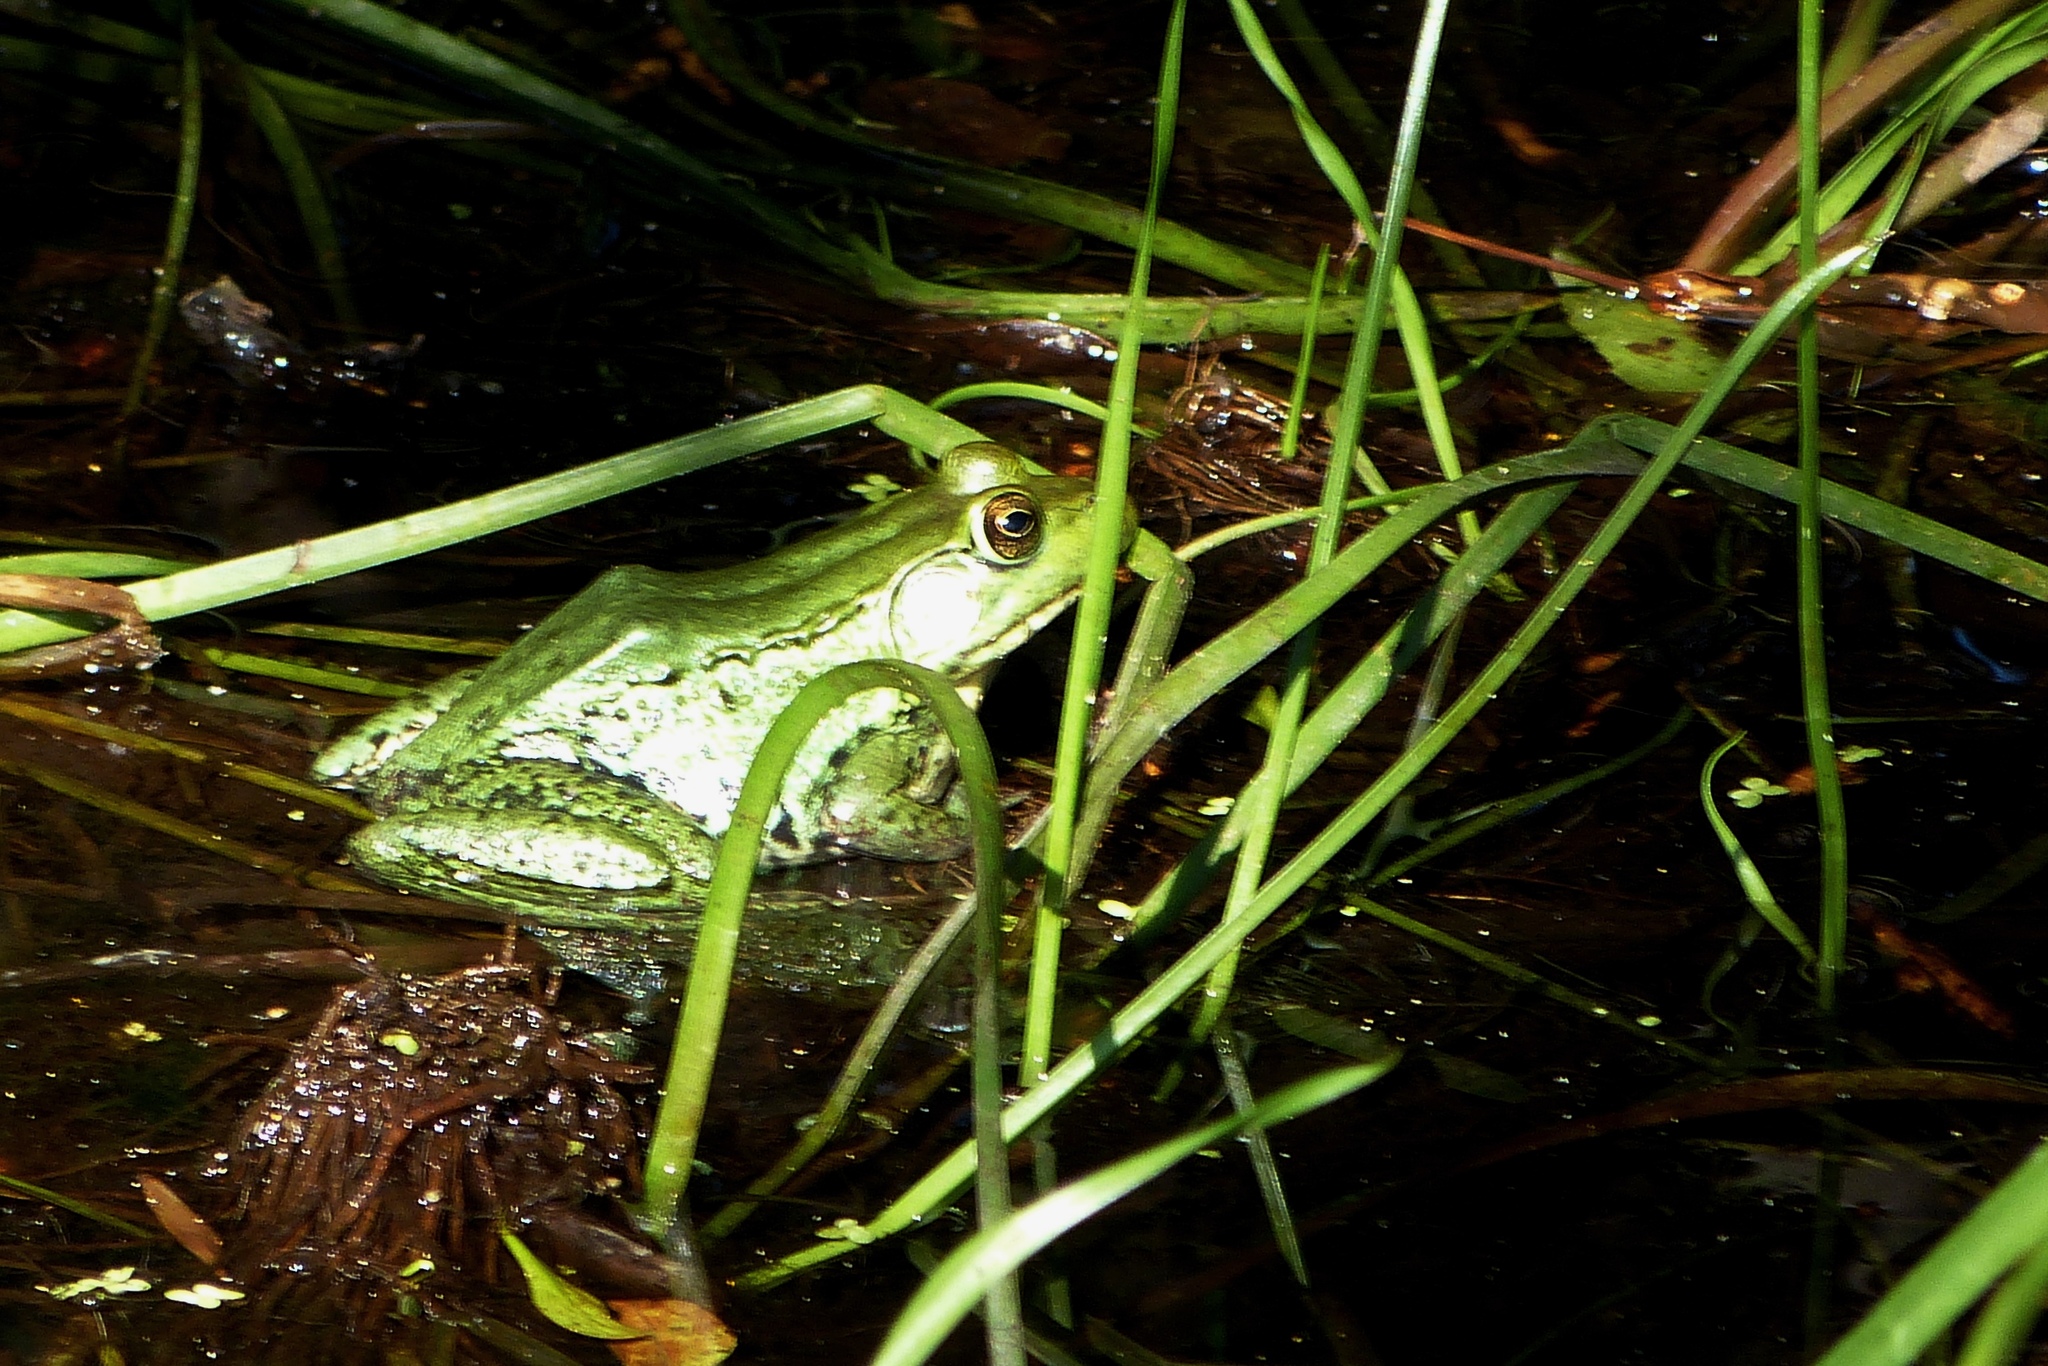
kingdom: Animalia
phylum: Chordata
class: Amphibia
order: Anura
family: Ranidae
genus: Lithobates
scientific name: Lithobates clamitans
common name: Green frog
